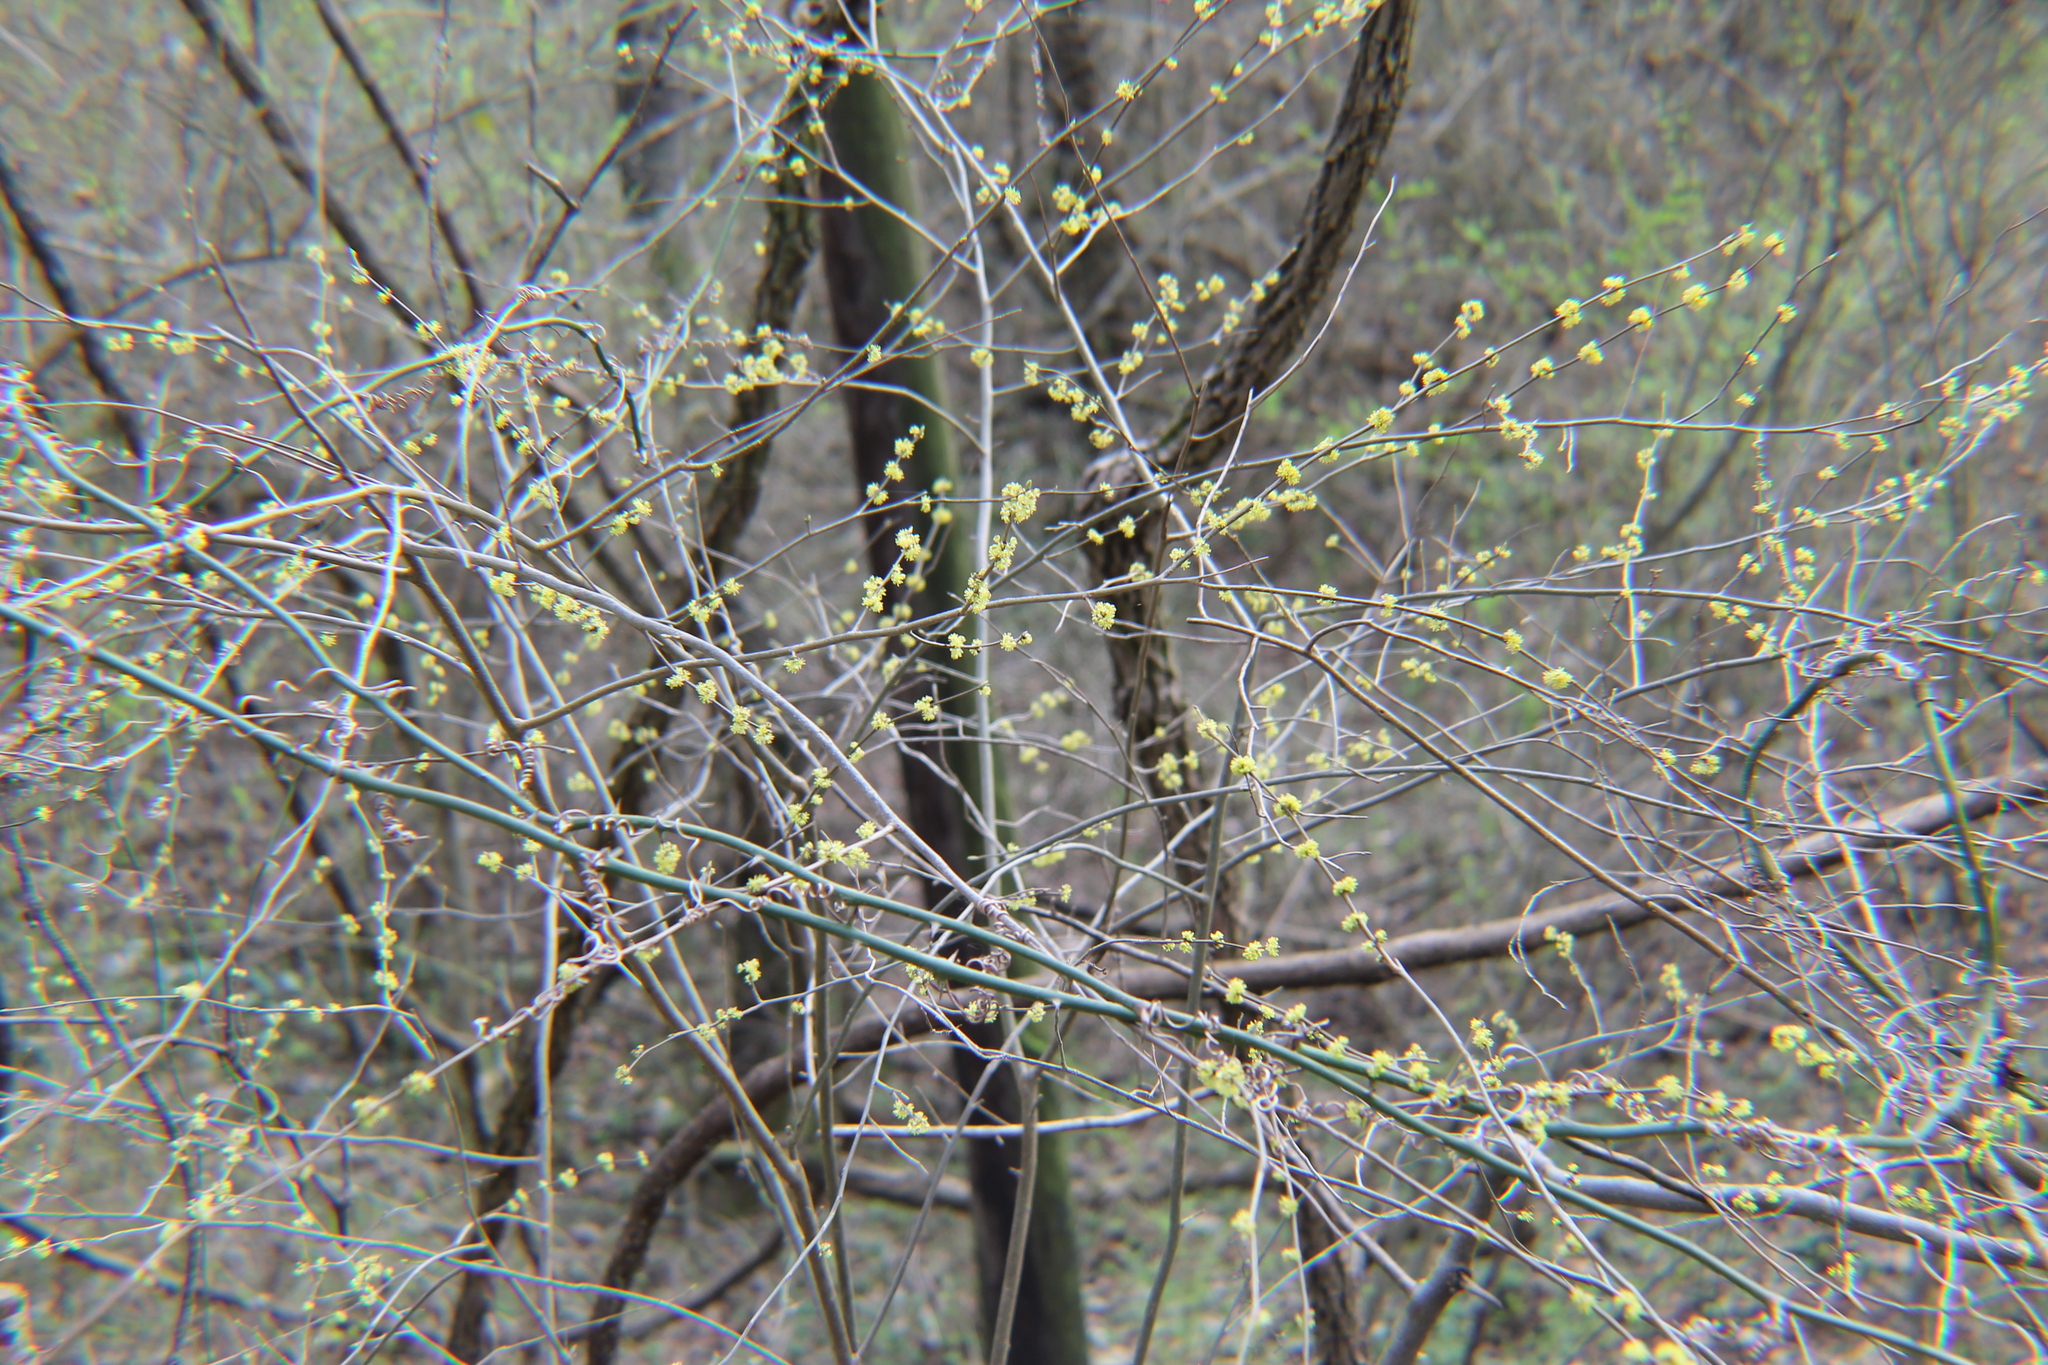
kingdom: Plantae
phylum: Tracheophyta
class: Magnoliopsida
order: Laurales
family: Lauraceae
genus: Lindera
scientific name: Lindera benzoin
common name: Spicebush
